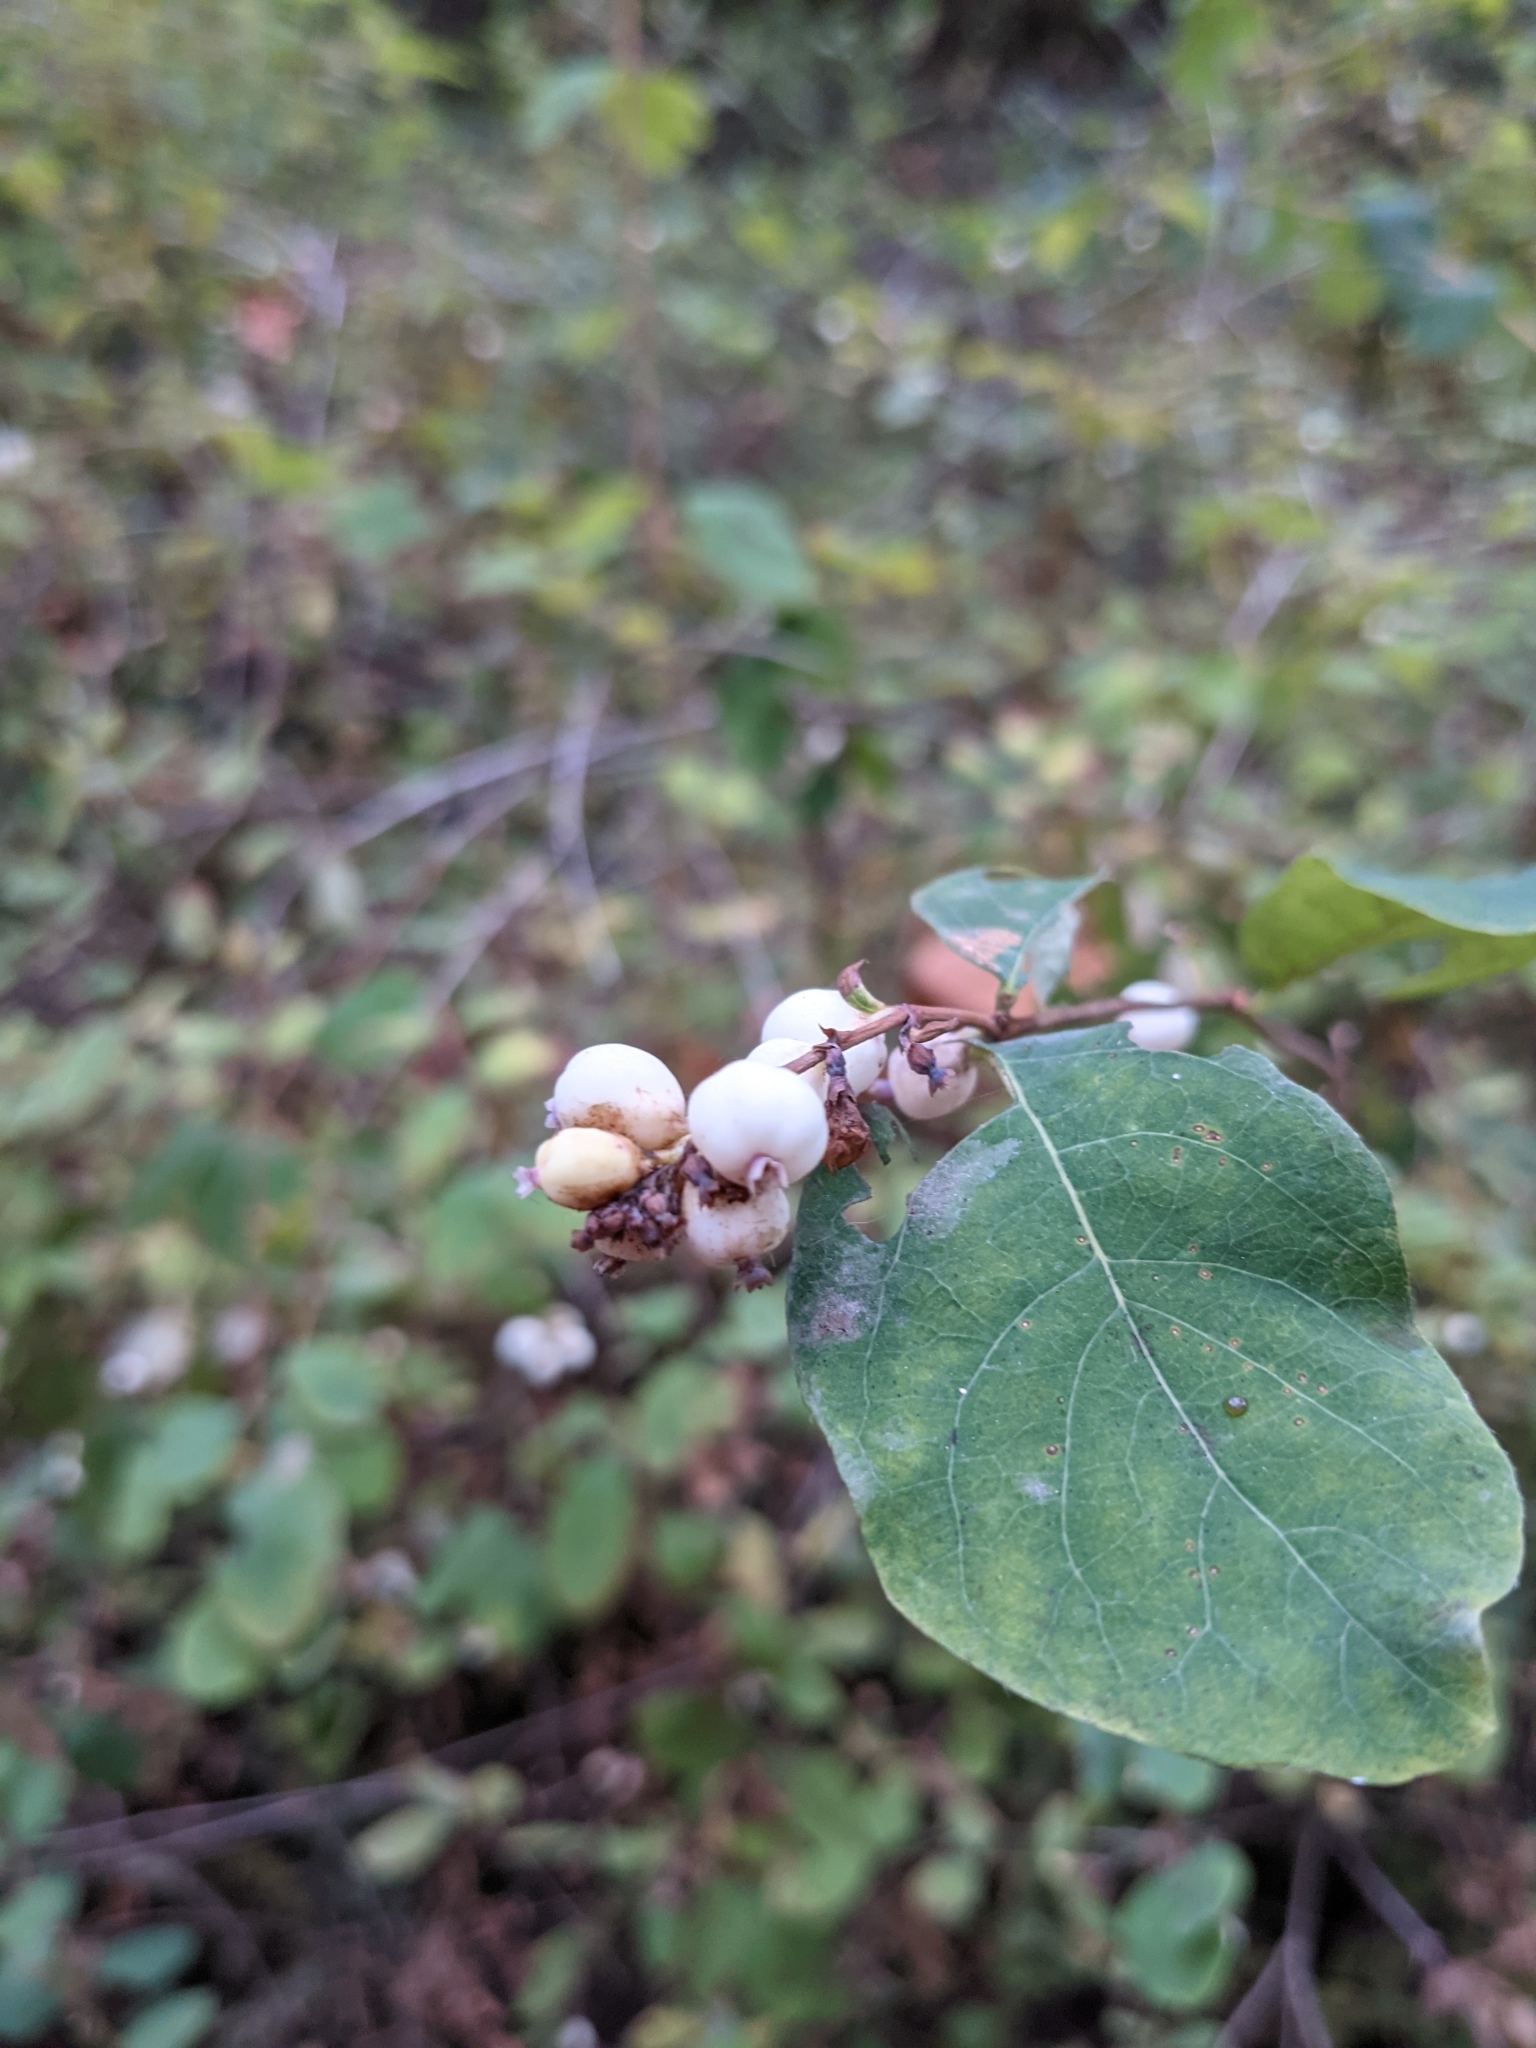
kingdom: Plantae
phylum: Tracheophyta
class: Magnoliopsida
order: Dipsacales
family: Caprifoliaceae
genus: Symphoricarpos
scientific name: Symphoricarpos albus
